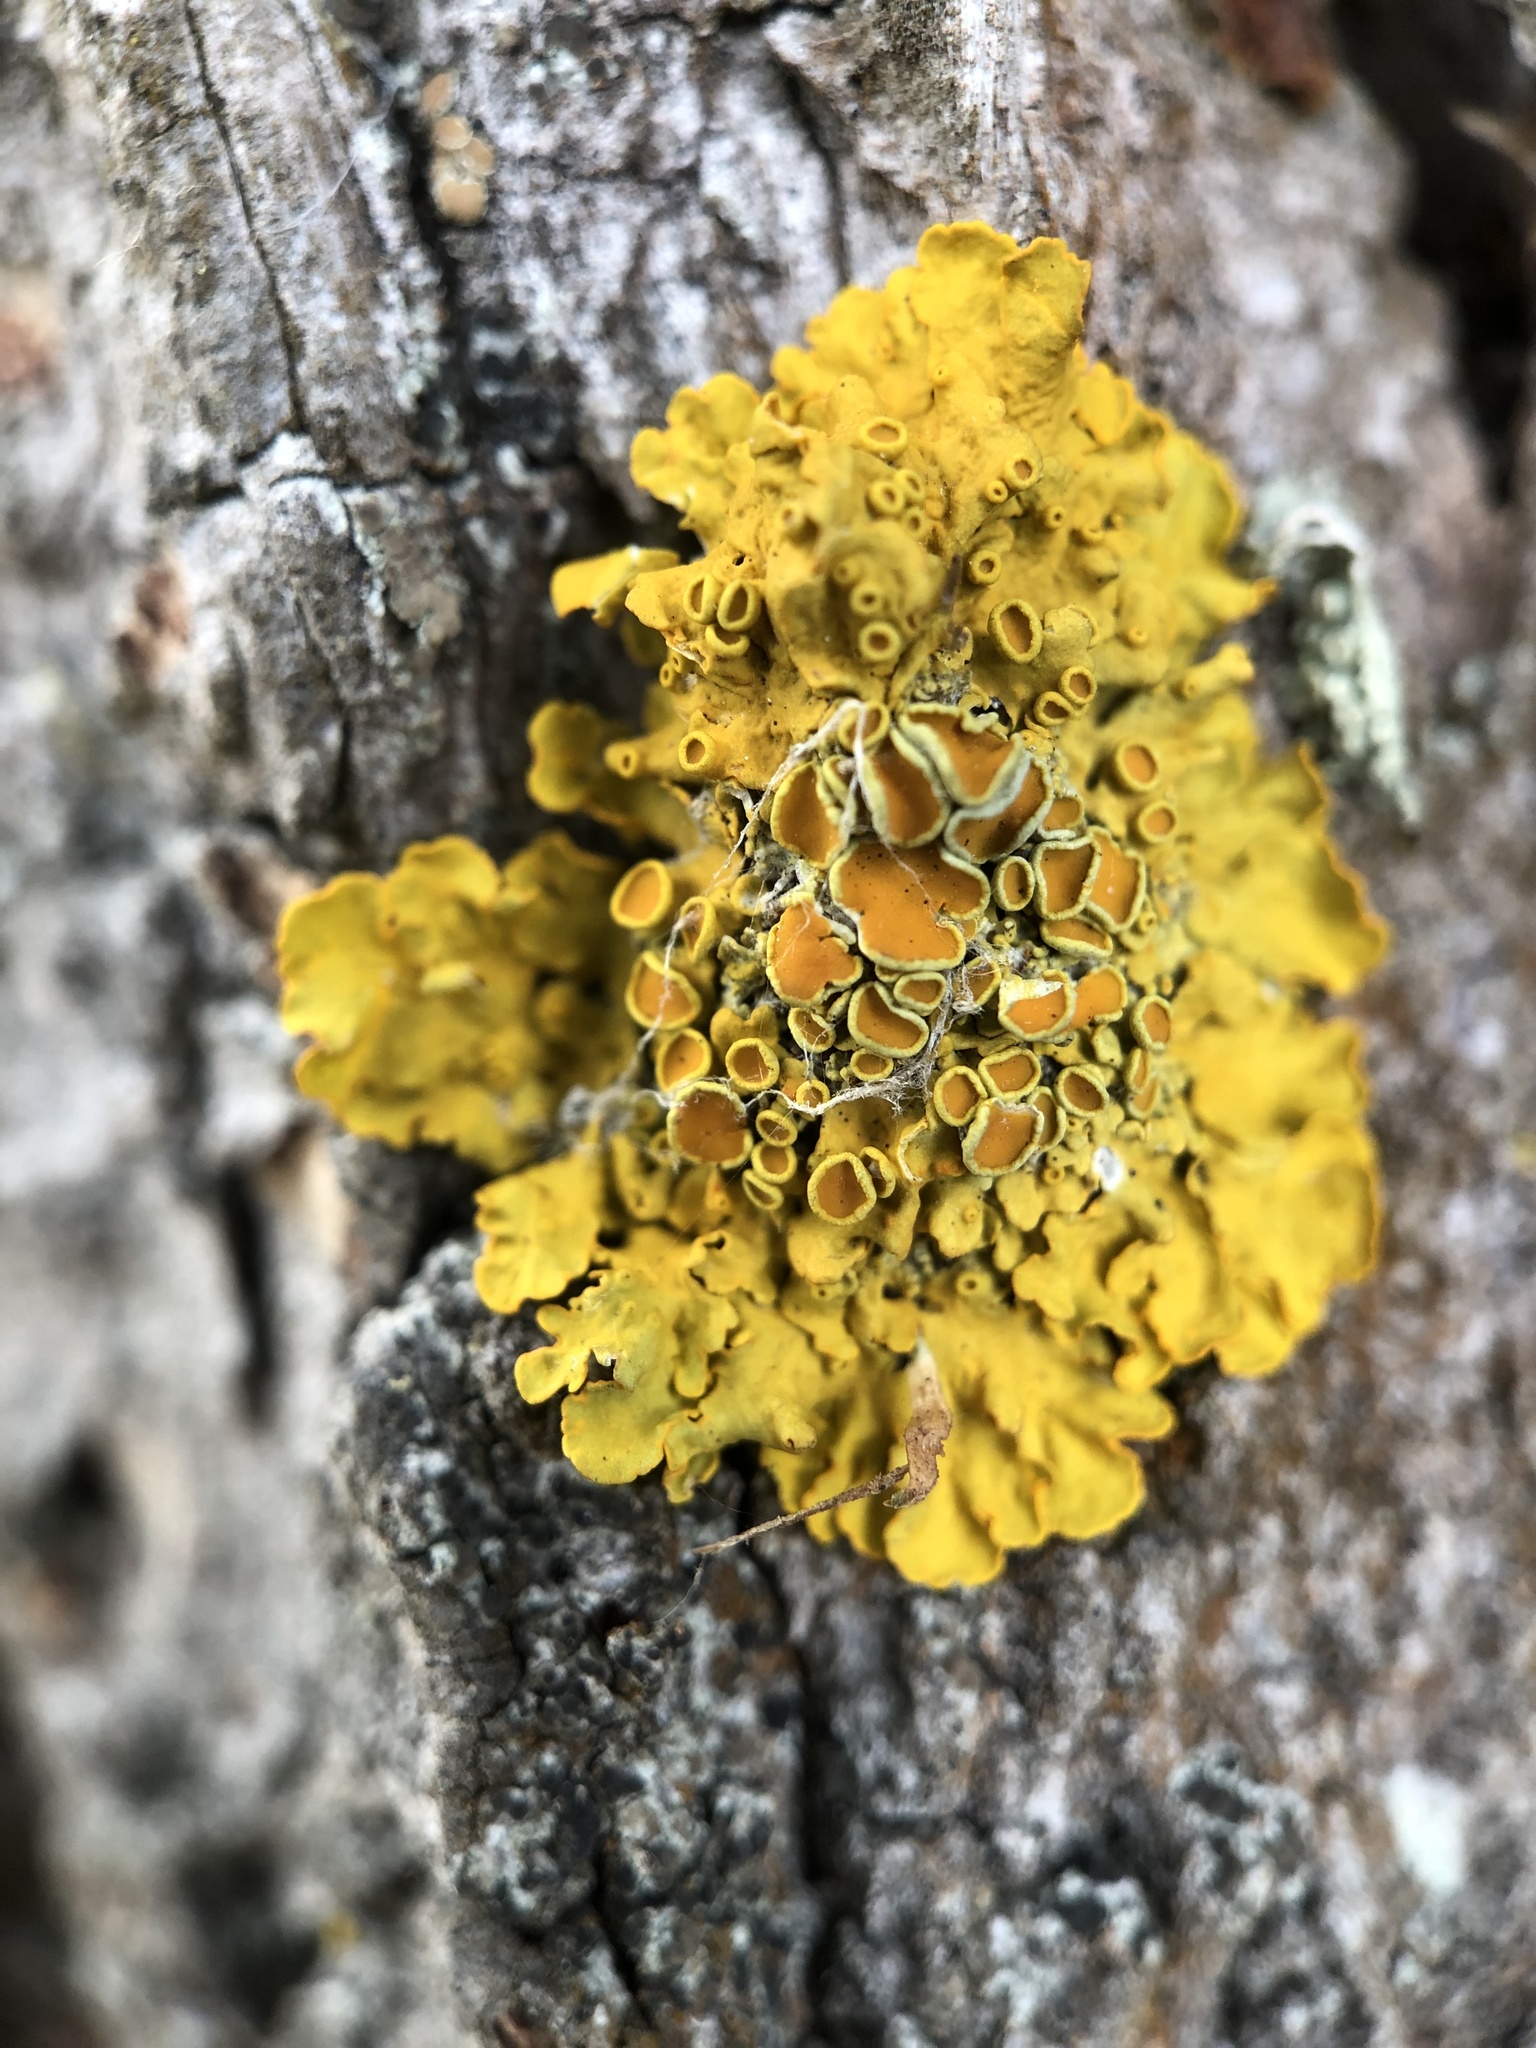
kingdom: Fungi
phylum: Ascomycota
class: Lecanoromycetes
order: Teloschistales
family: Teloschistaceae
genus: Xanthoria
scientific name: Xanthoria parietina
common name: Common orange lichen
